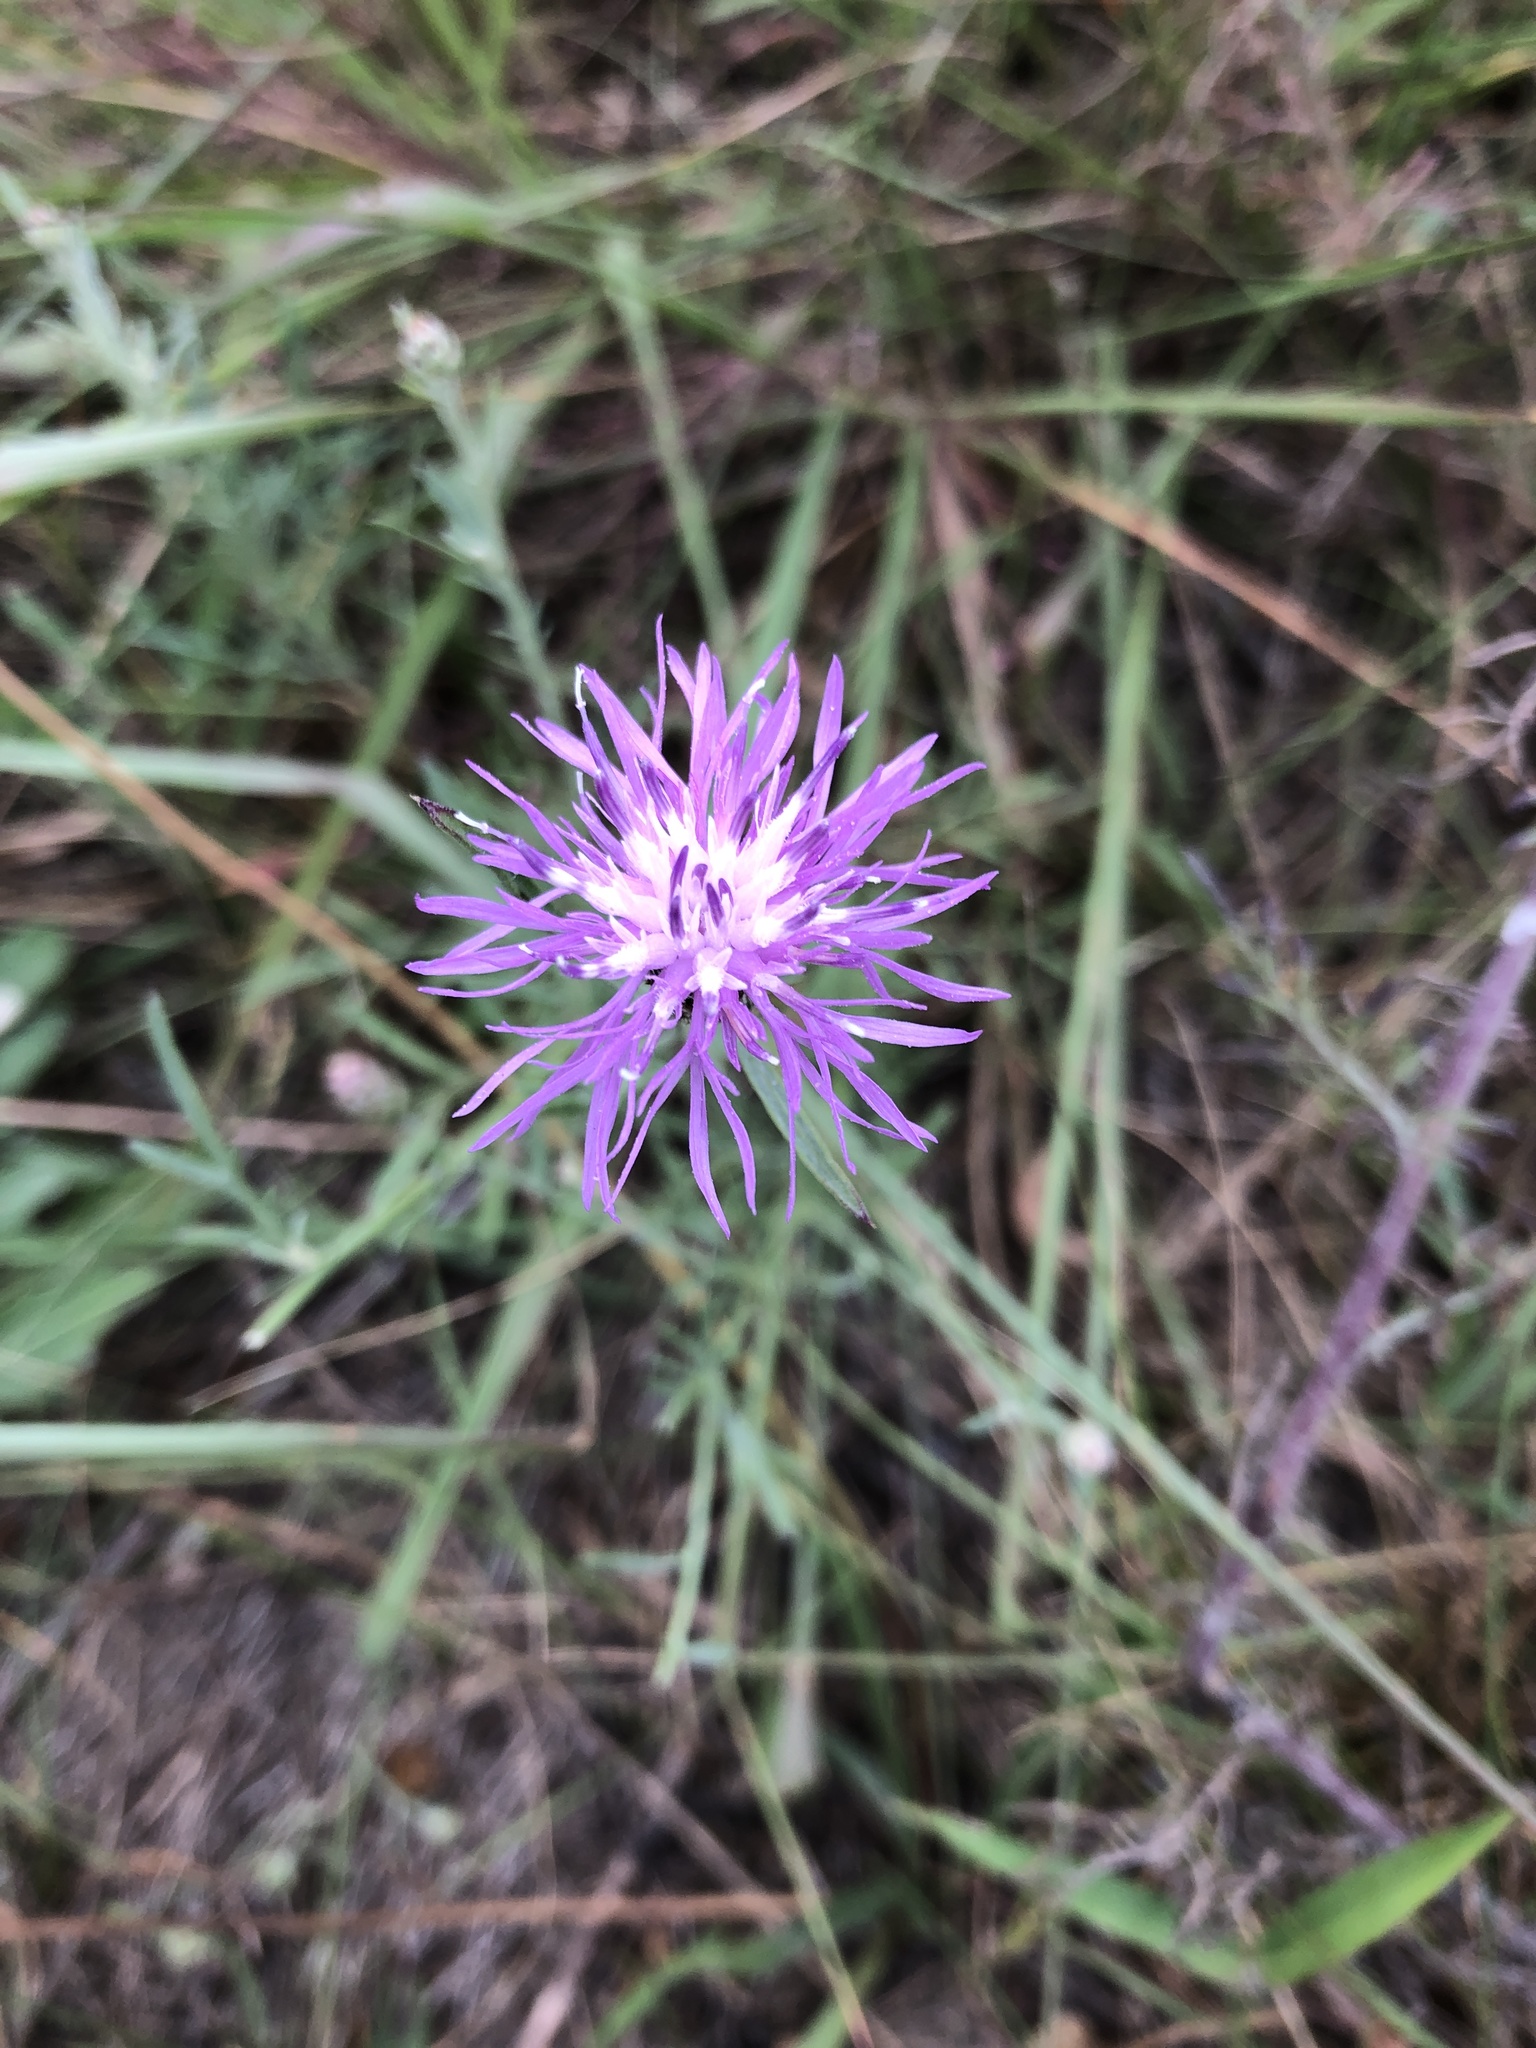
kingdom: Plantae
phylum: Tracheophyta
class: Magnoliopsida
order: Asterales
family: Asteraceae
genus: Centaurea
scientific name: Centaurea stoebe
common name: Spotted knapweed
